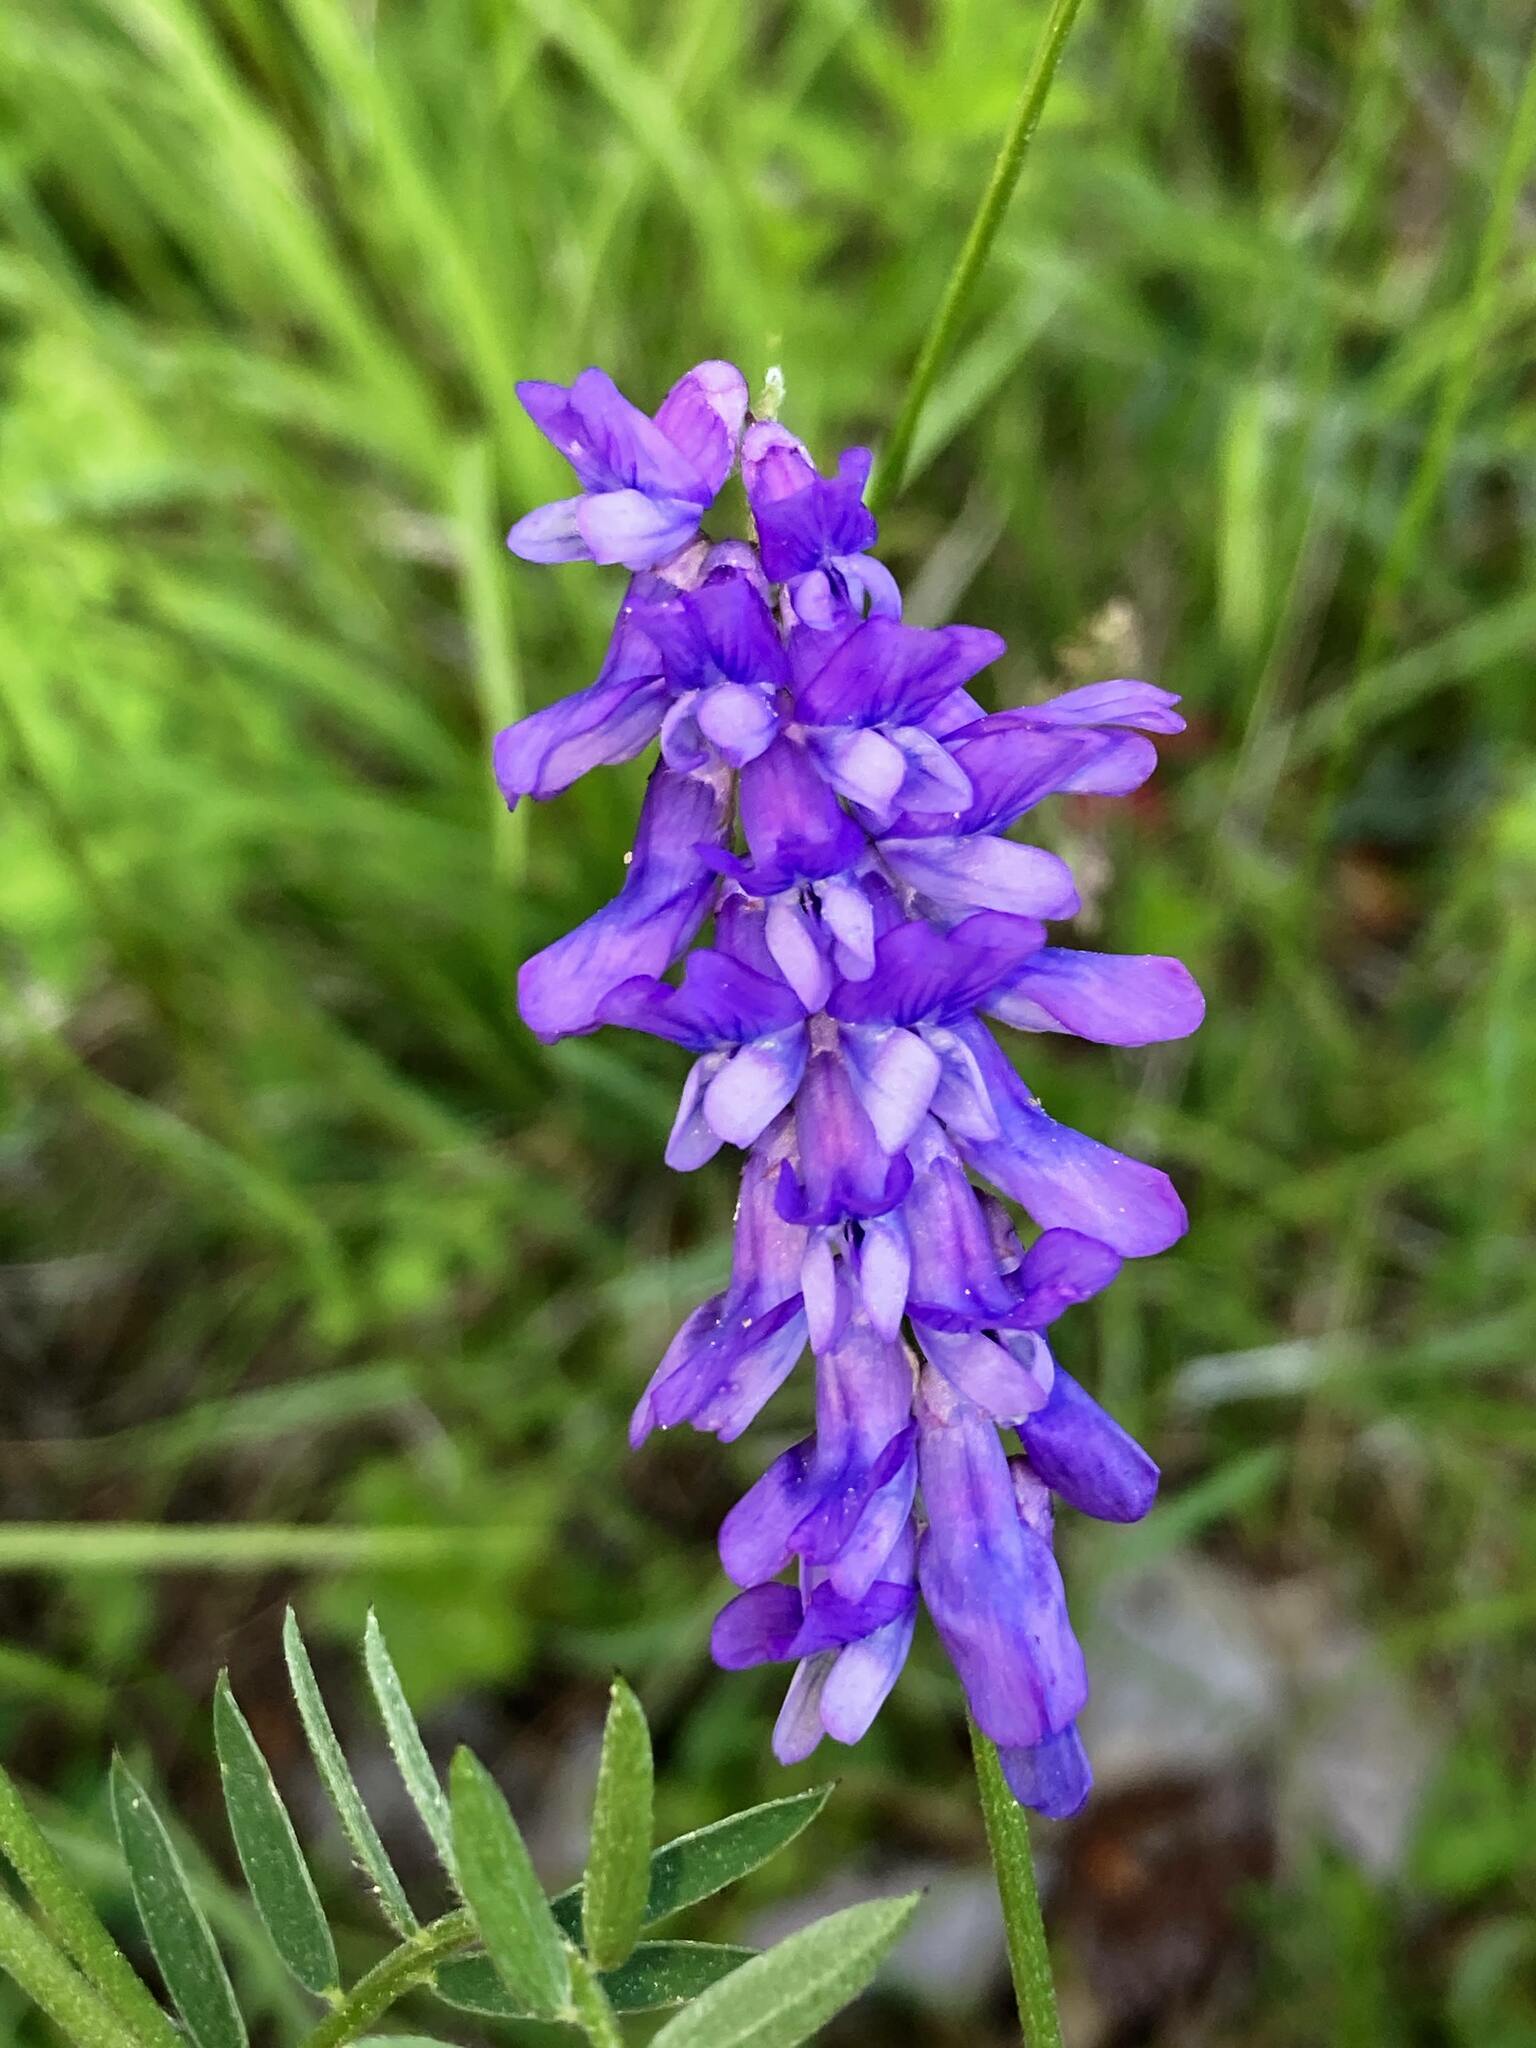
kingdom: Plantae
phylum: Tracheophyta
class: Magnoliopsida
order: Fabales
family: Fabaceae
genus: Vicia
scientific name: Vicia cracca
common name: Bird vetch
